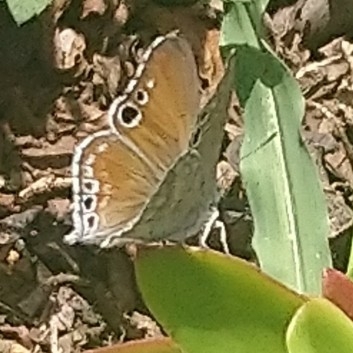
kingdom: Animalia
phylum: Arthropoda
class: Insecta
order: Lepidoptera
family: Lycaenidae
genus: Leptomyrina
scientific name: Leptomyrina henningi
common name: Henning's black-eye
